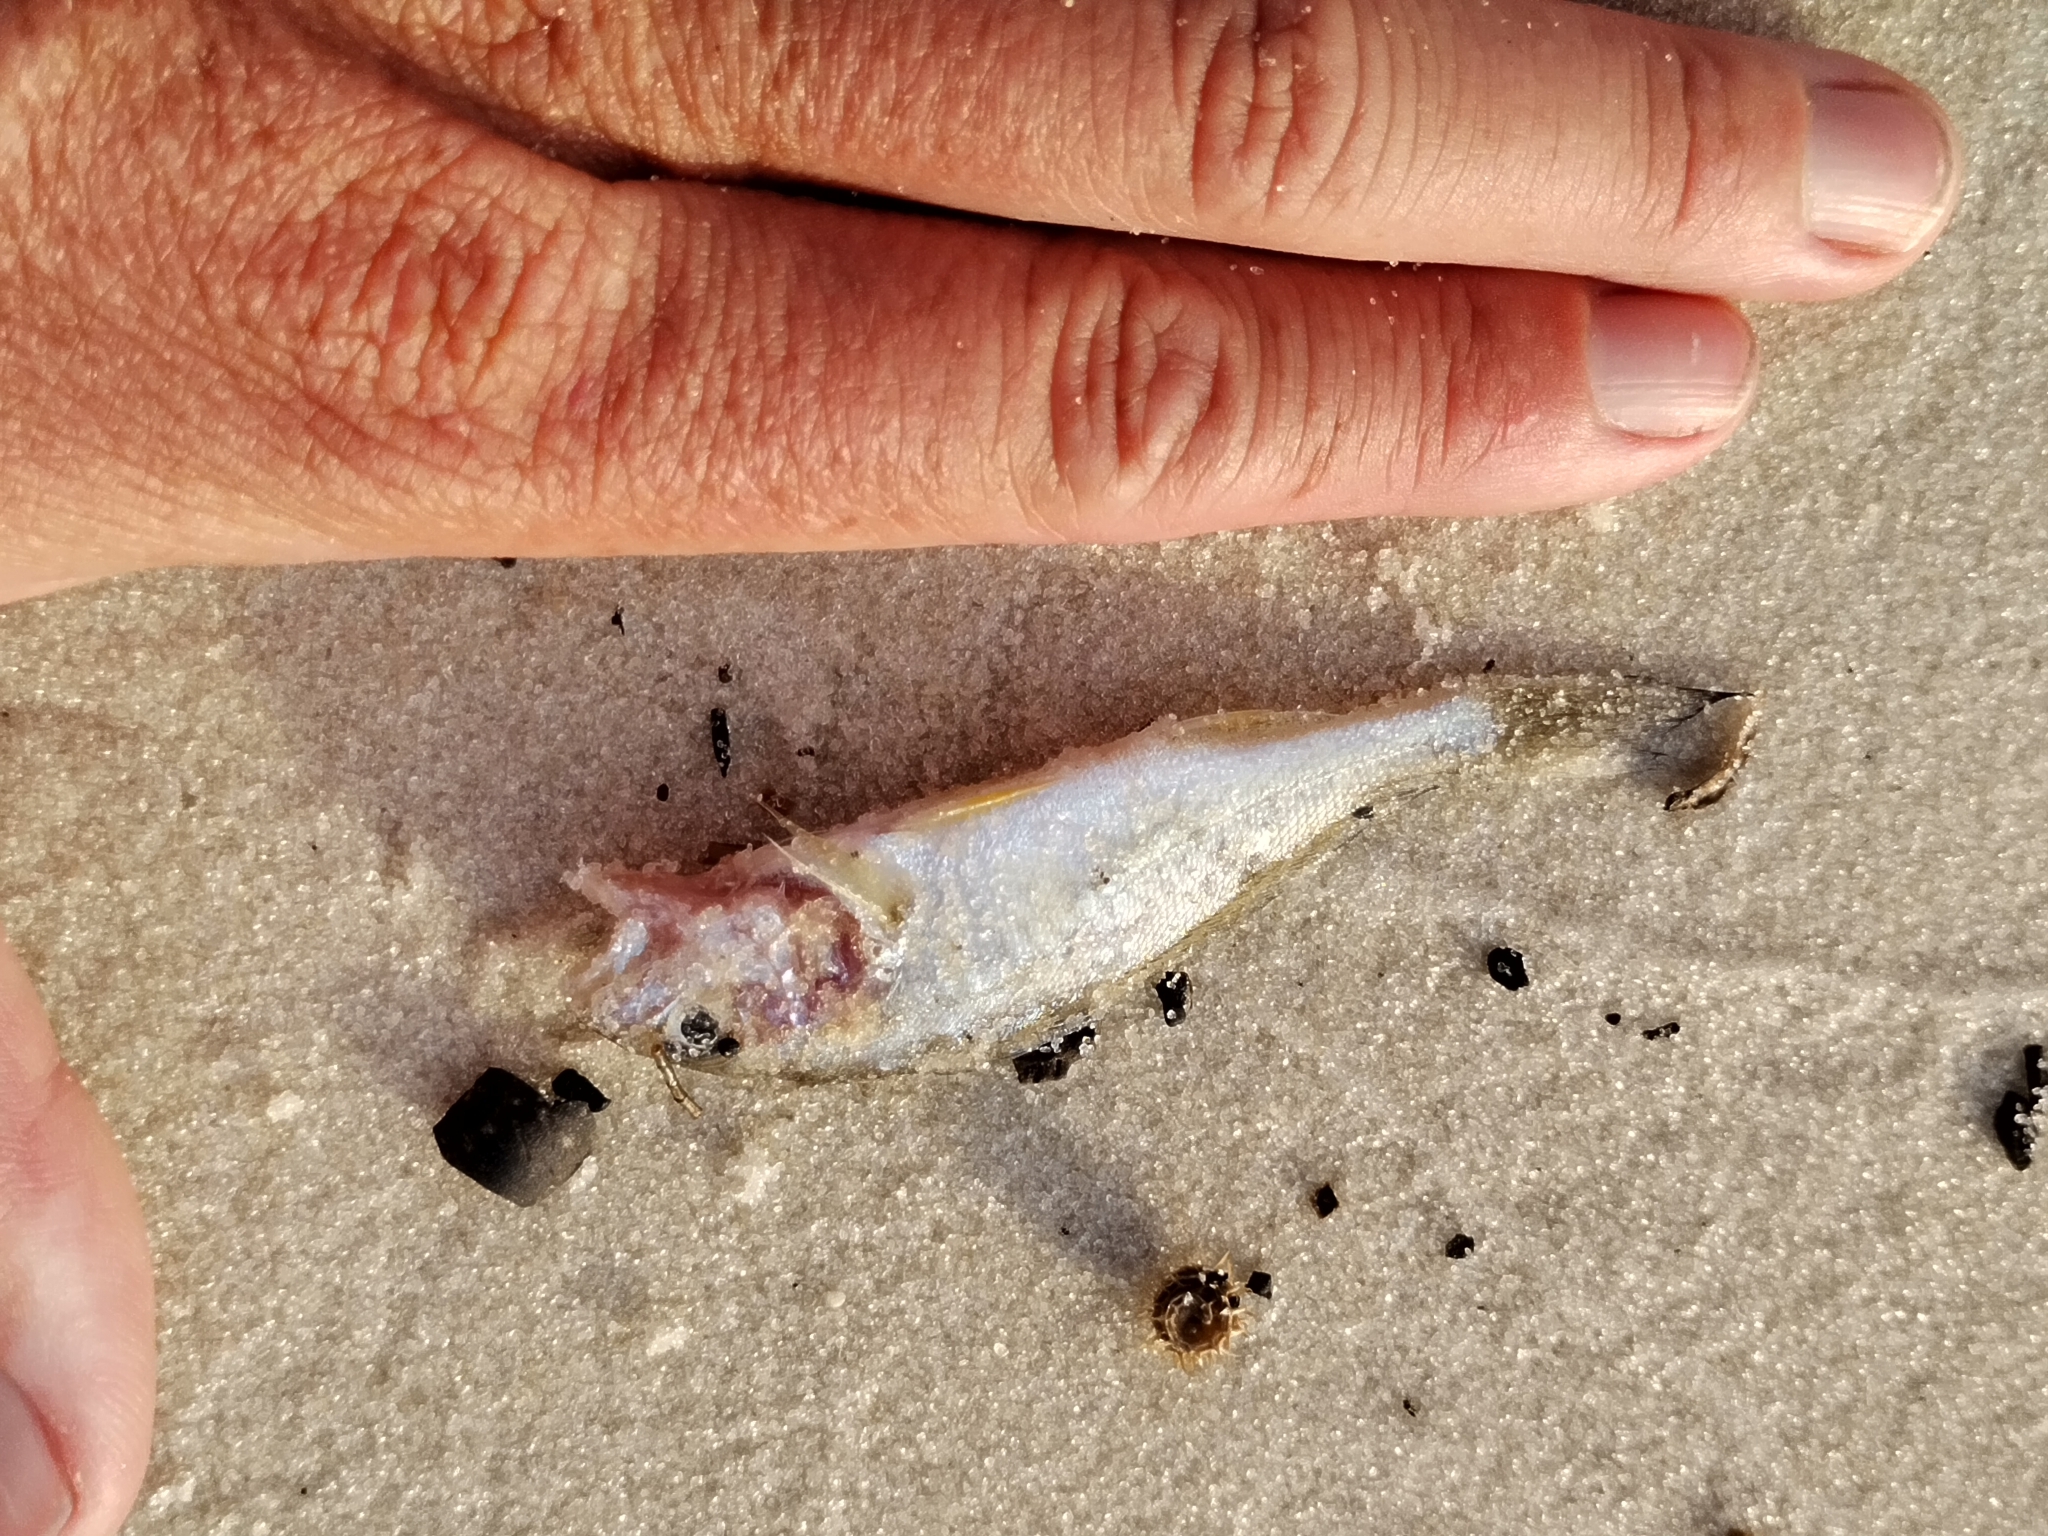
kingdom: Animalia
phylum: Chordata
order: Perciformes
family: Sciaenidae
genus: Micropogonias
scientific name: Micropogonias undulatus
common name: Atlantic croaker
